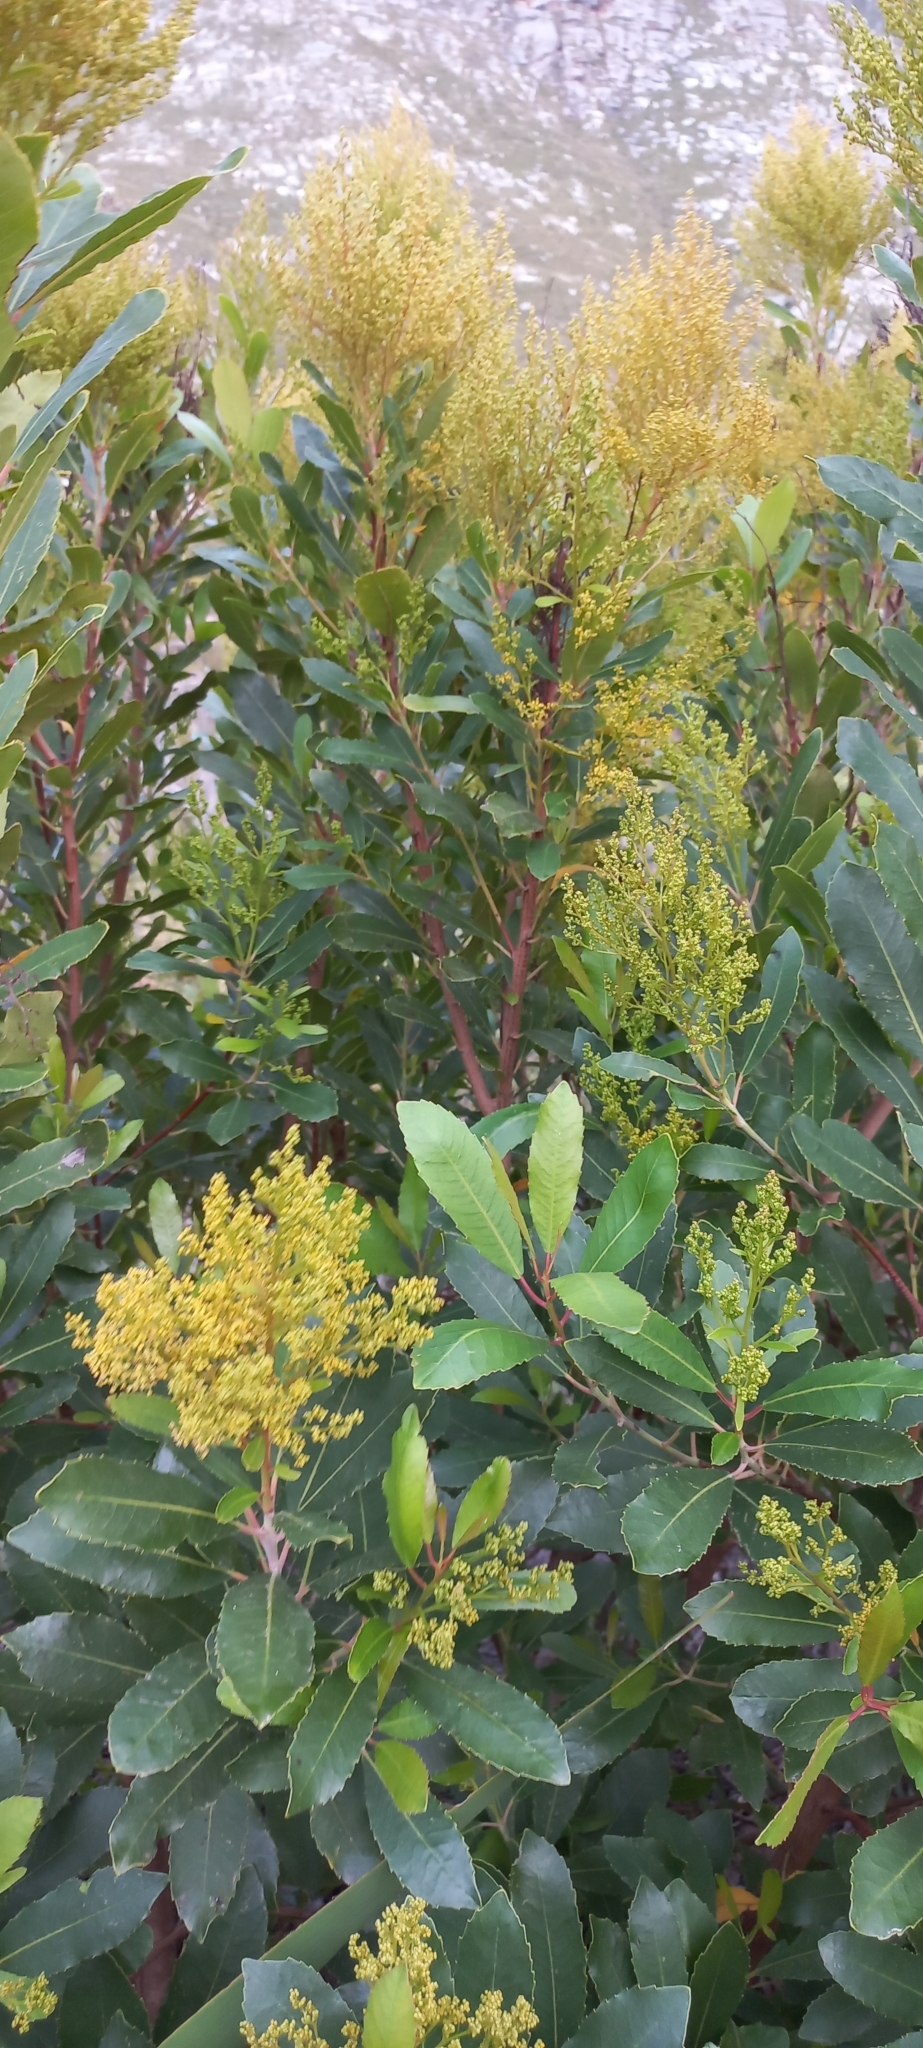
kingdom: Plantae
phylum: Tracheophyta
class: Magnoliopsida
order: Sapindales
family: Anacardiaceae
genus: Laurophyllus
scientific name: Laurophyllus capensis
